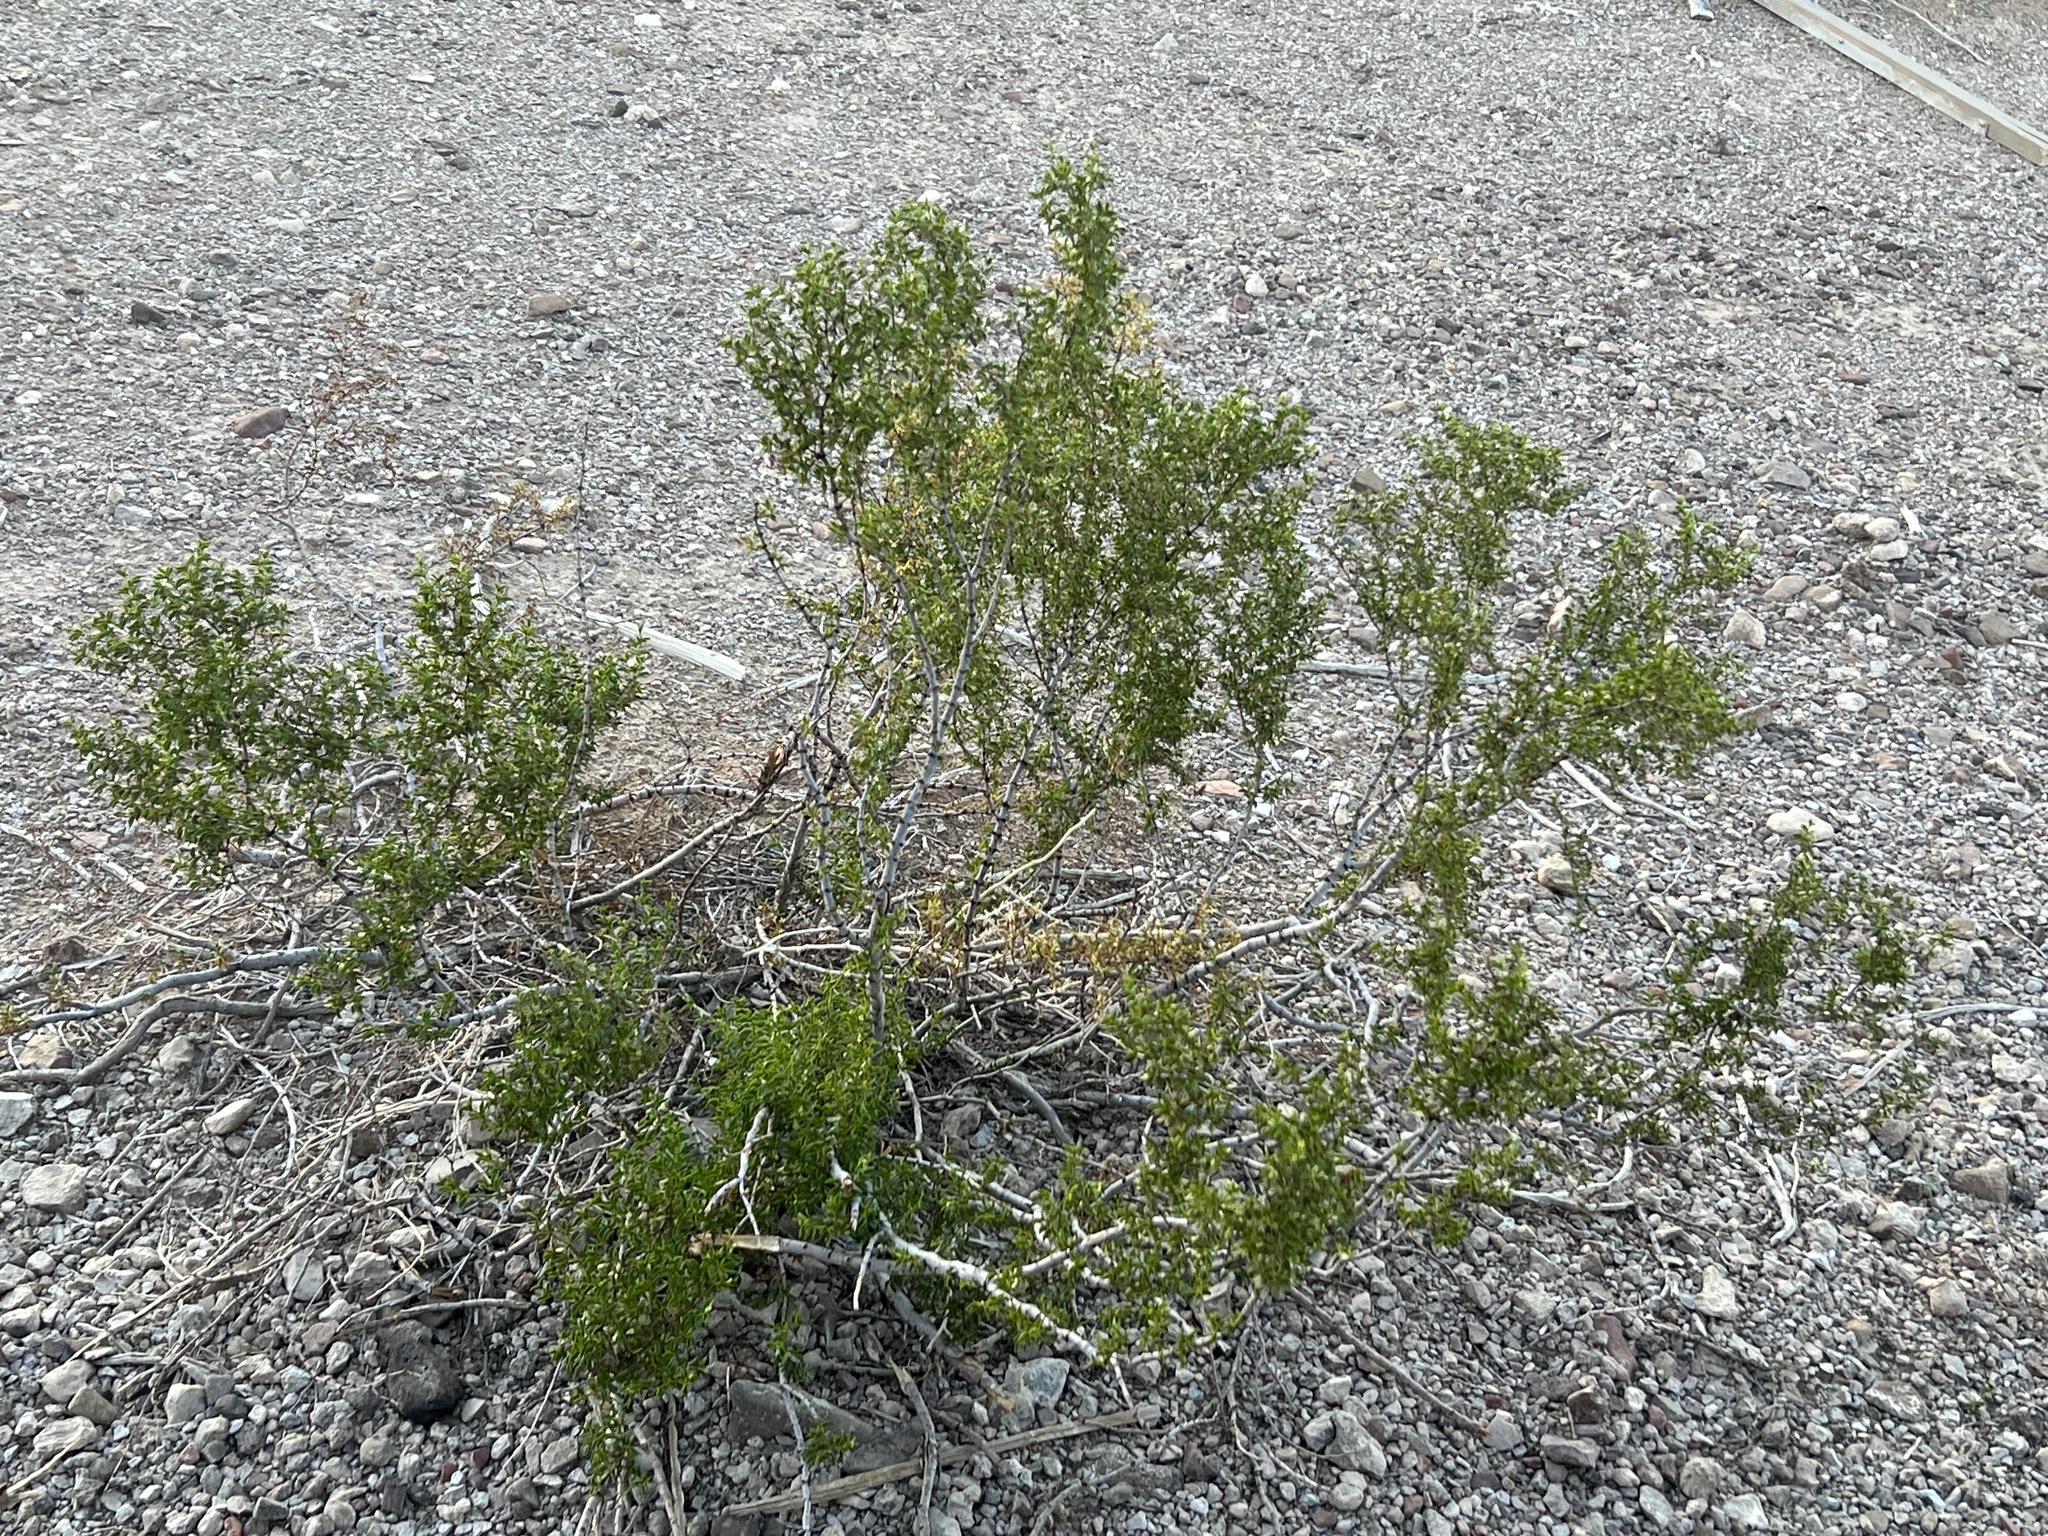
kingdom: Plantae
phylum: Tracheophyta
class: Magnoliopsida
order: Zygophyllales
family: Zygophyllaceae
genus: Larrea
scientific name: Larrea tridentata
